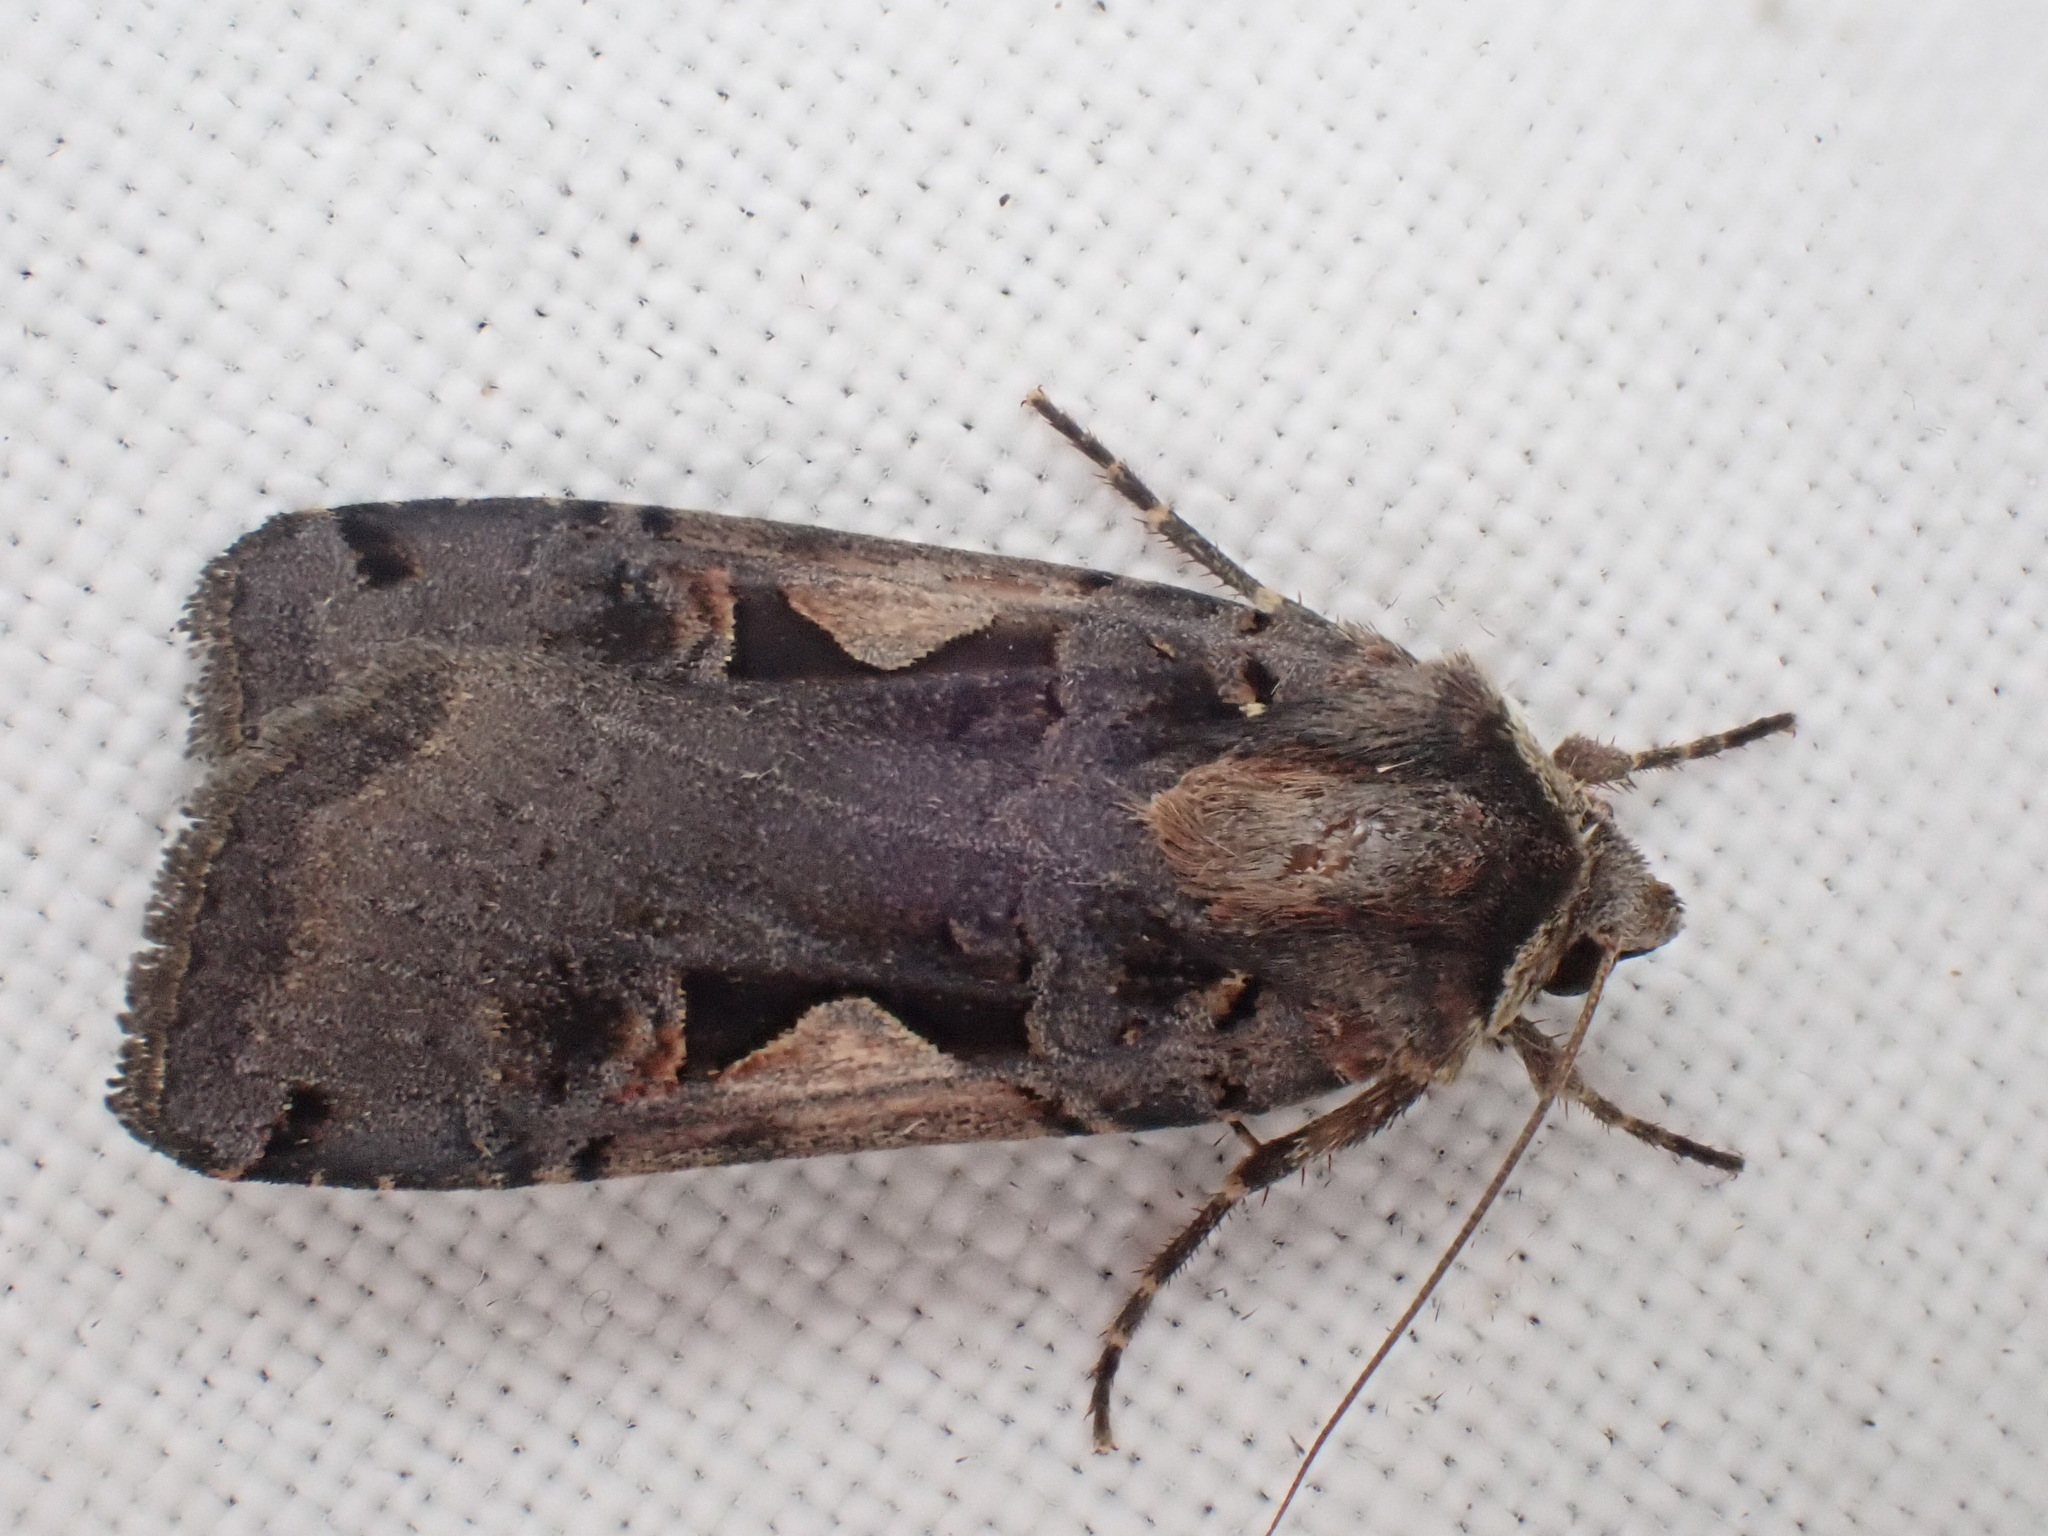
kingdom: Animalia
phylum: Arthropoda
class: Insecta
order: Lepidoptera
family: Noctuidae
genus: Xestia
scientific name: Xestia c-nigrum
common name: Setaceous hebrew character
